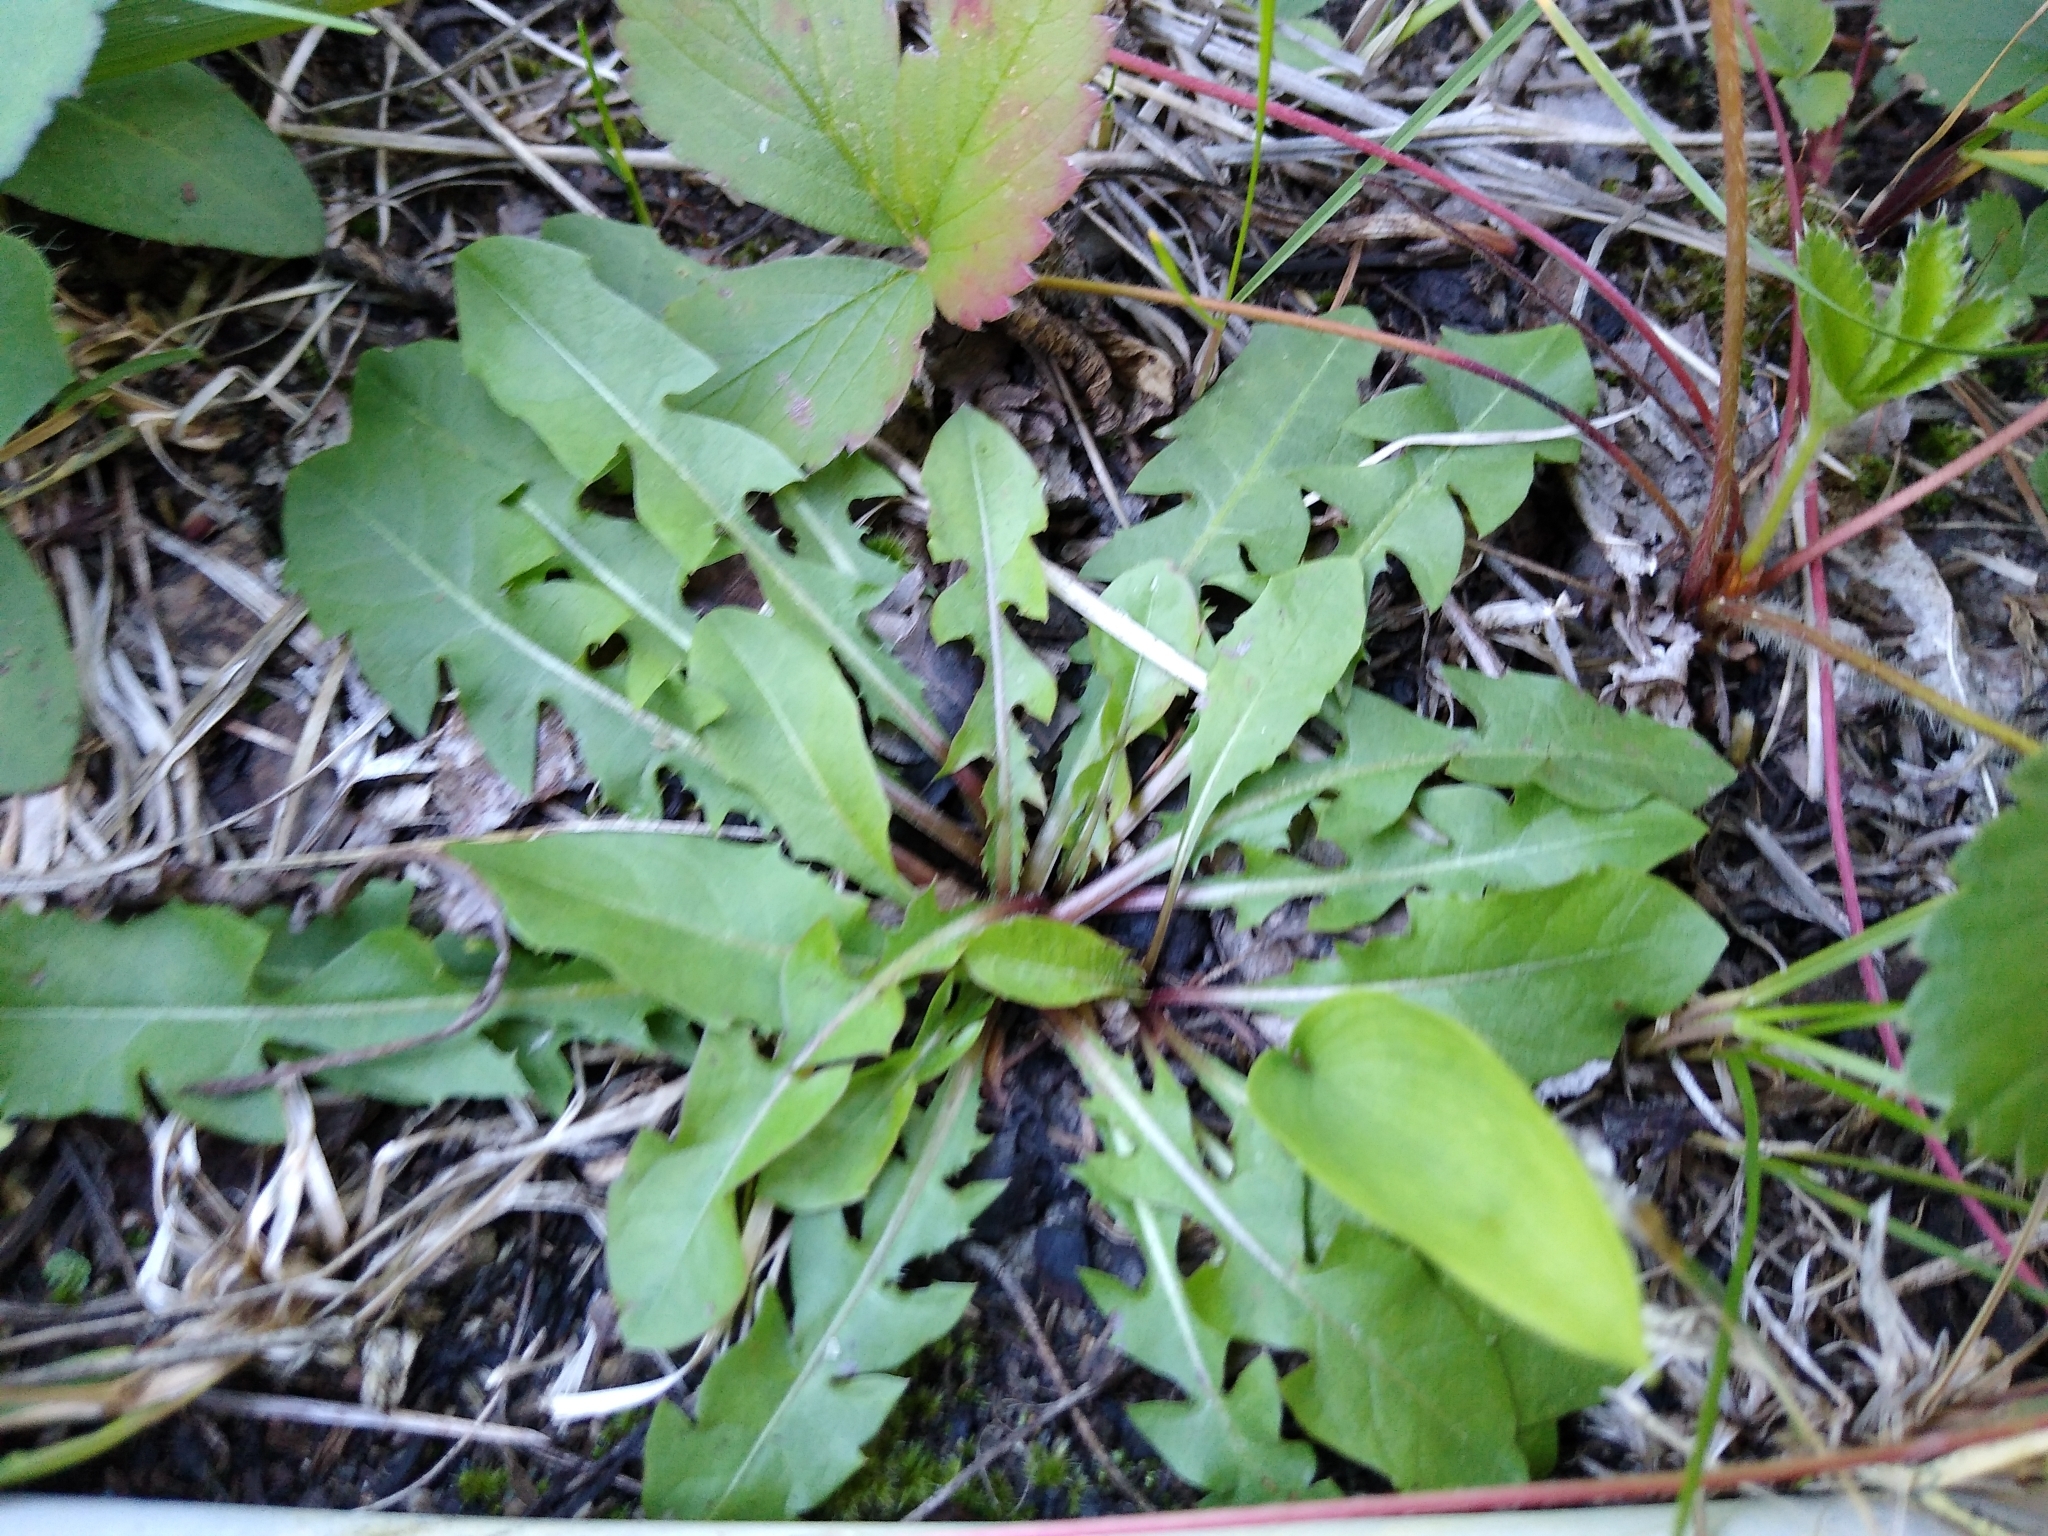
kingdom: Plantae
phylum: Tracheophyta
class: Magnoliopsida
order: Asterales
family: Asteraceae
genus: Taraxacum
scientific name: Taraxacum officinale
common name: Common dandelion
